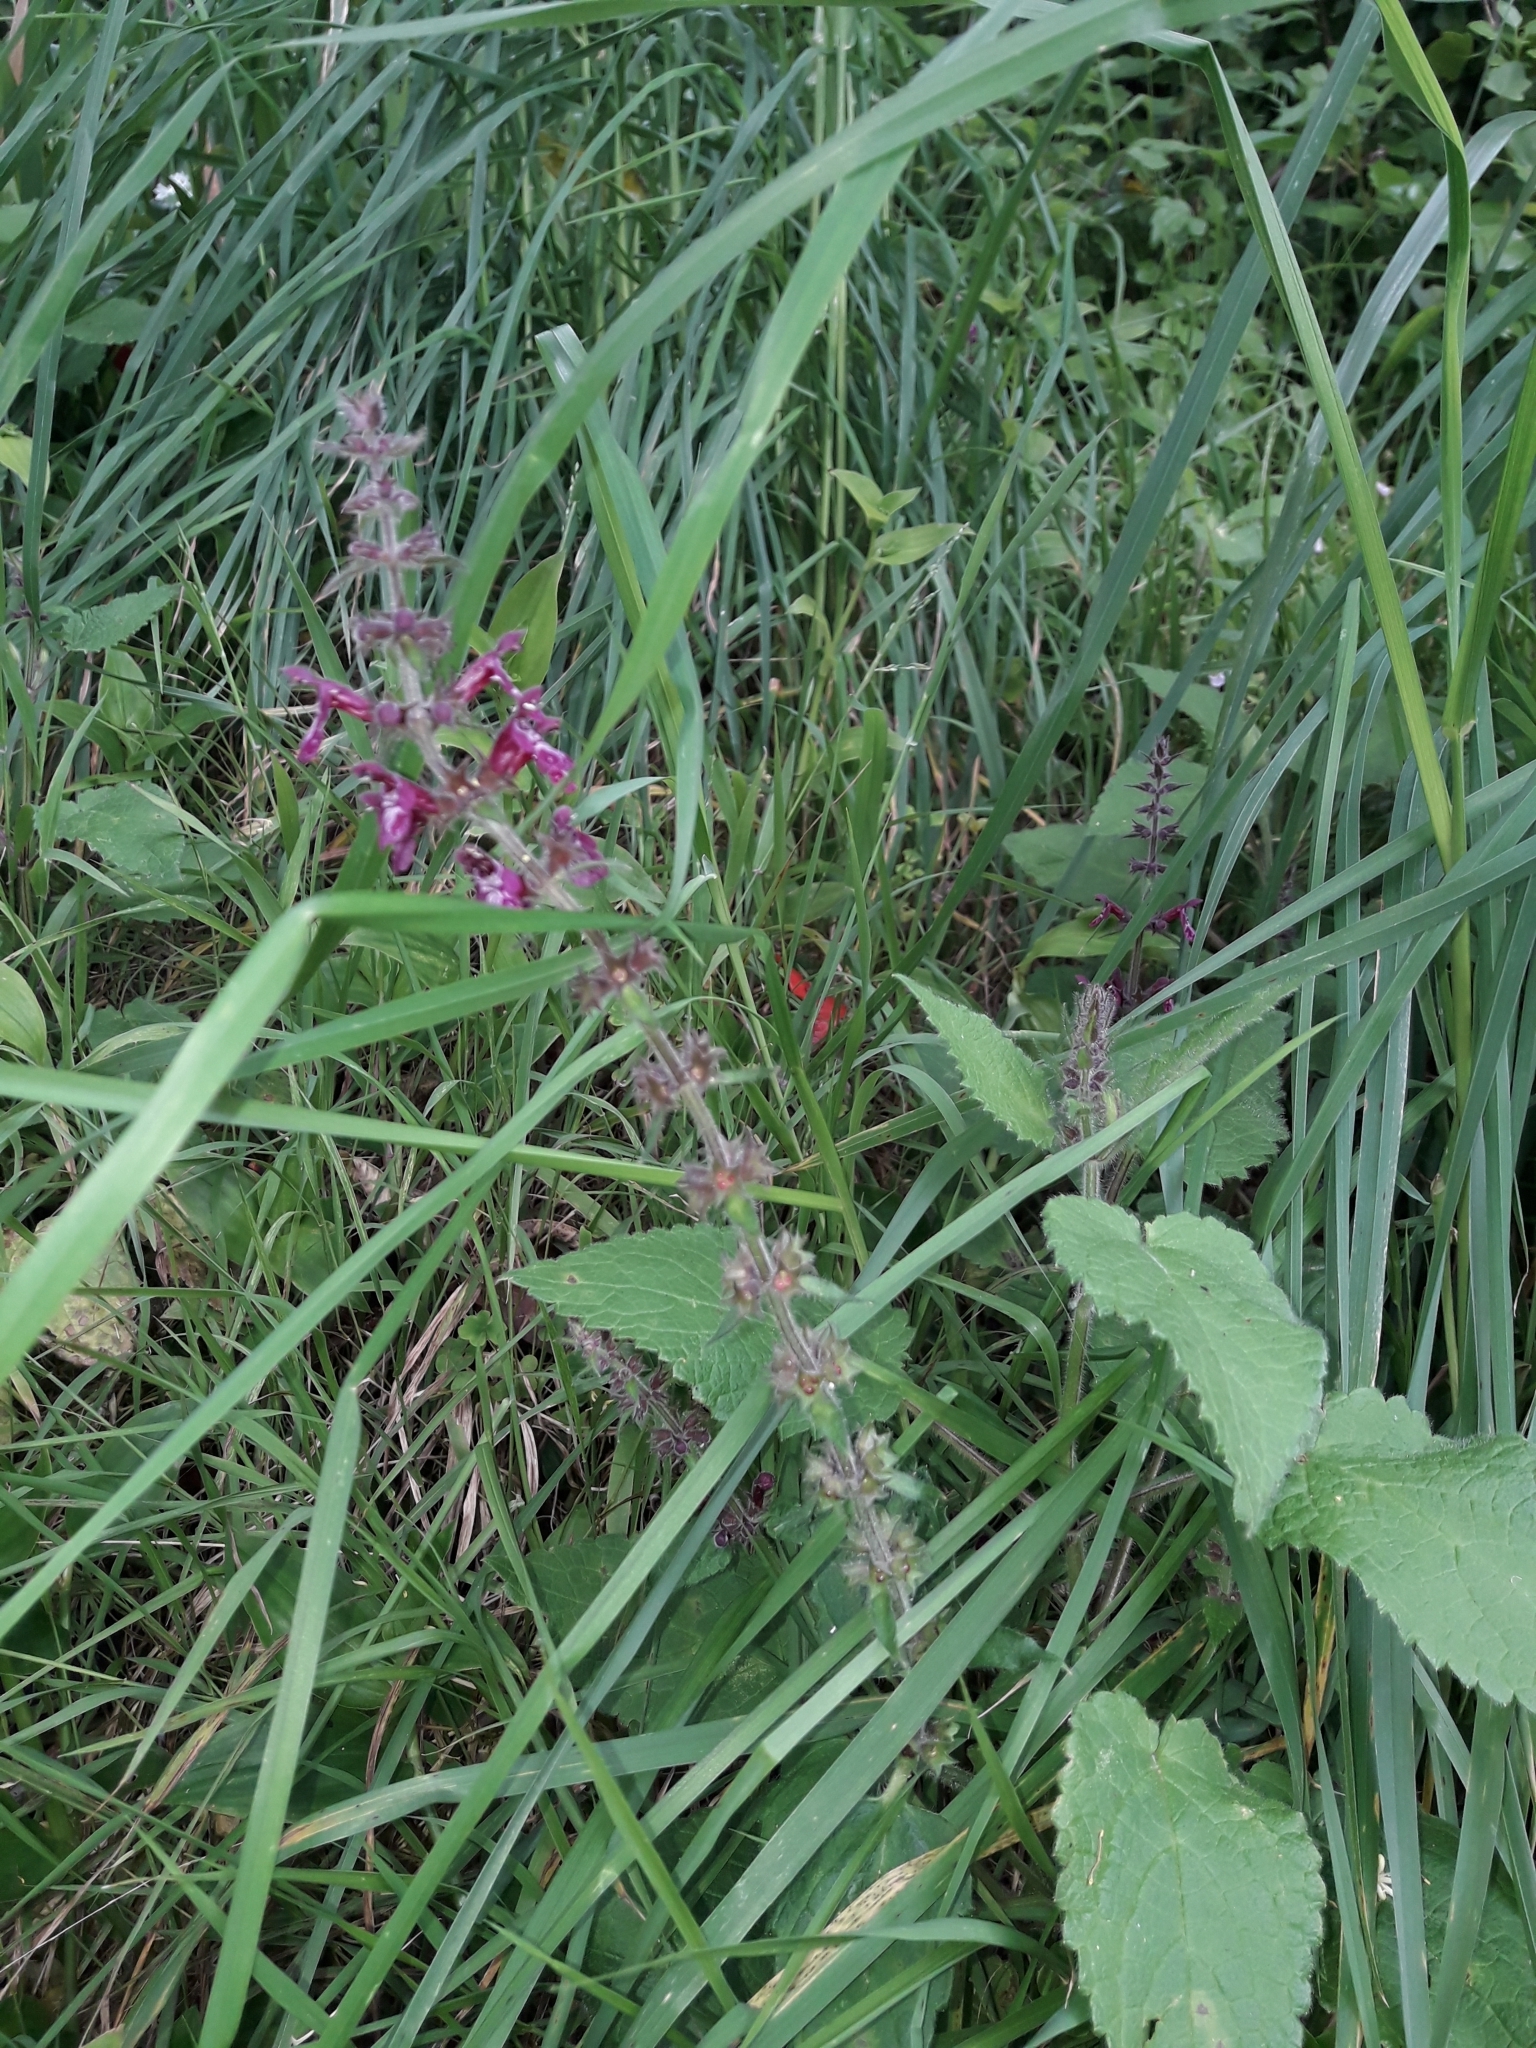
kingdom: Plantae
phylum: Tracheophyta
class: Magnoliopsida
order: Lamiales
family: Lamiaceae
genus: Stachys
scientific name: Stachys sylvatica
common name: Hedge woundwort
